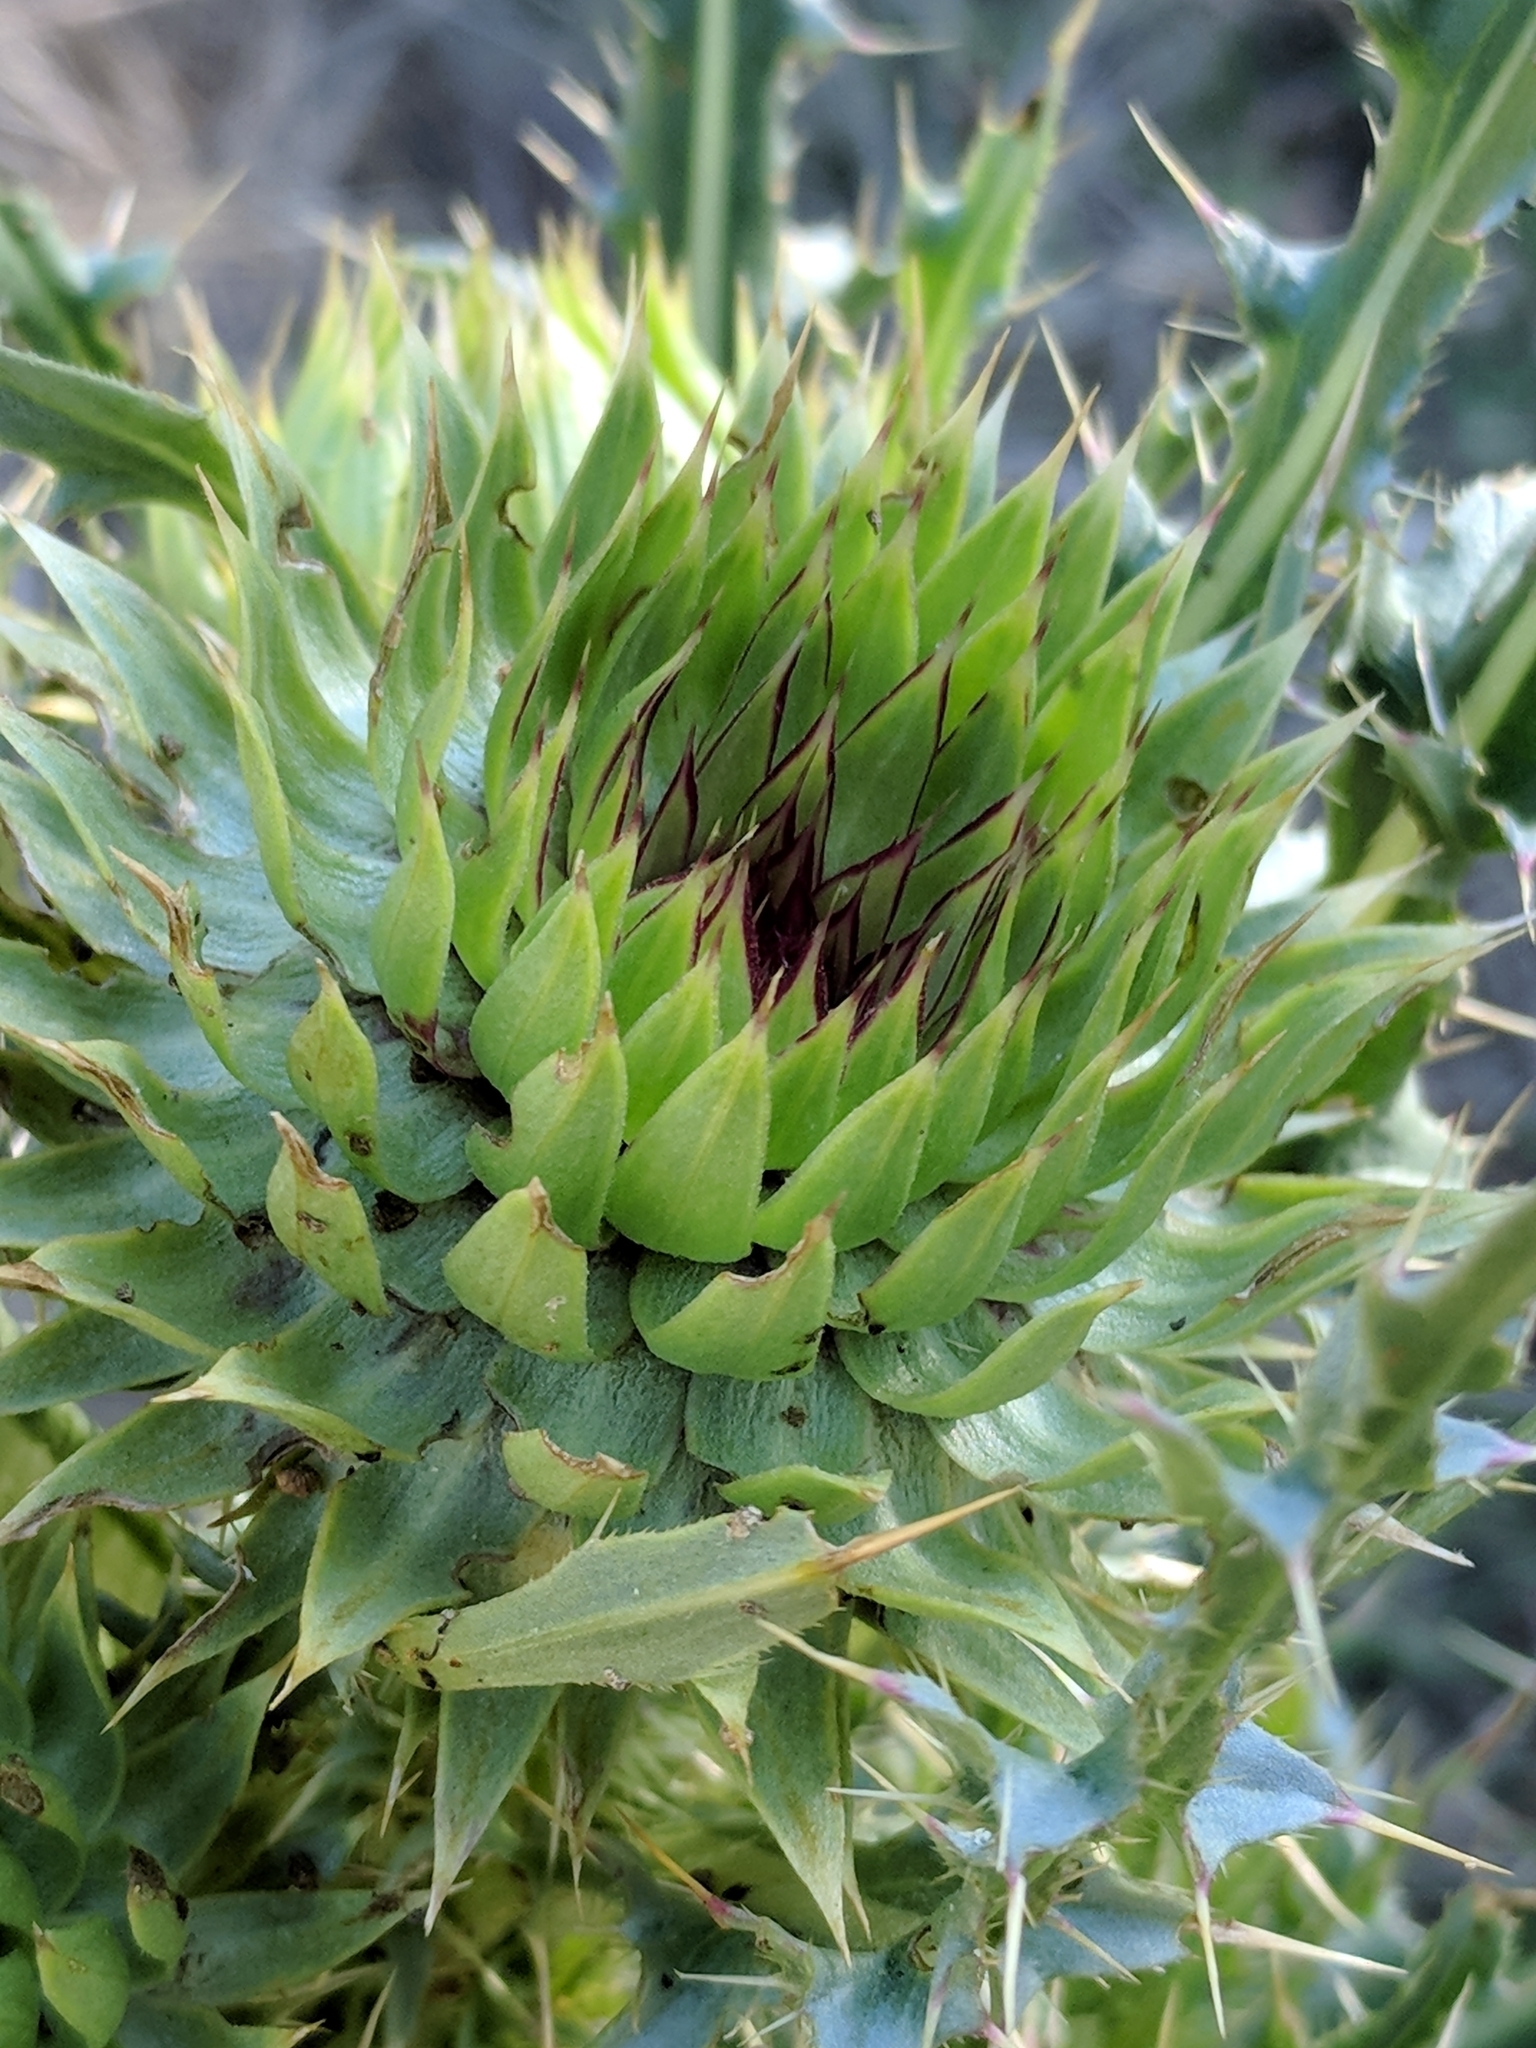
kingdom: Plantae
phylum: Tracheophyta
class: Magnoliopsida
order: Asterales
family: Asteraceae
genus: Carduus
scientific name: Carduus nutans
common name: Musk thistle
